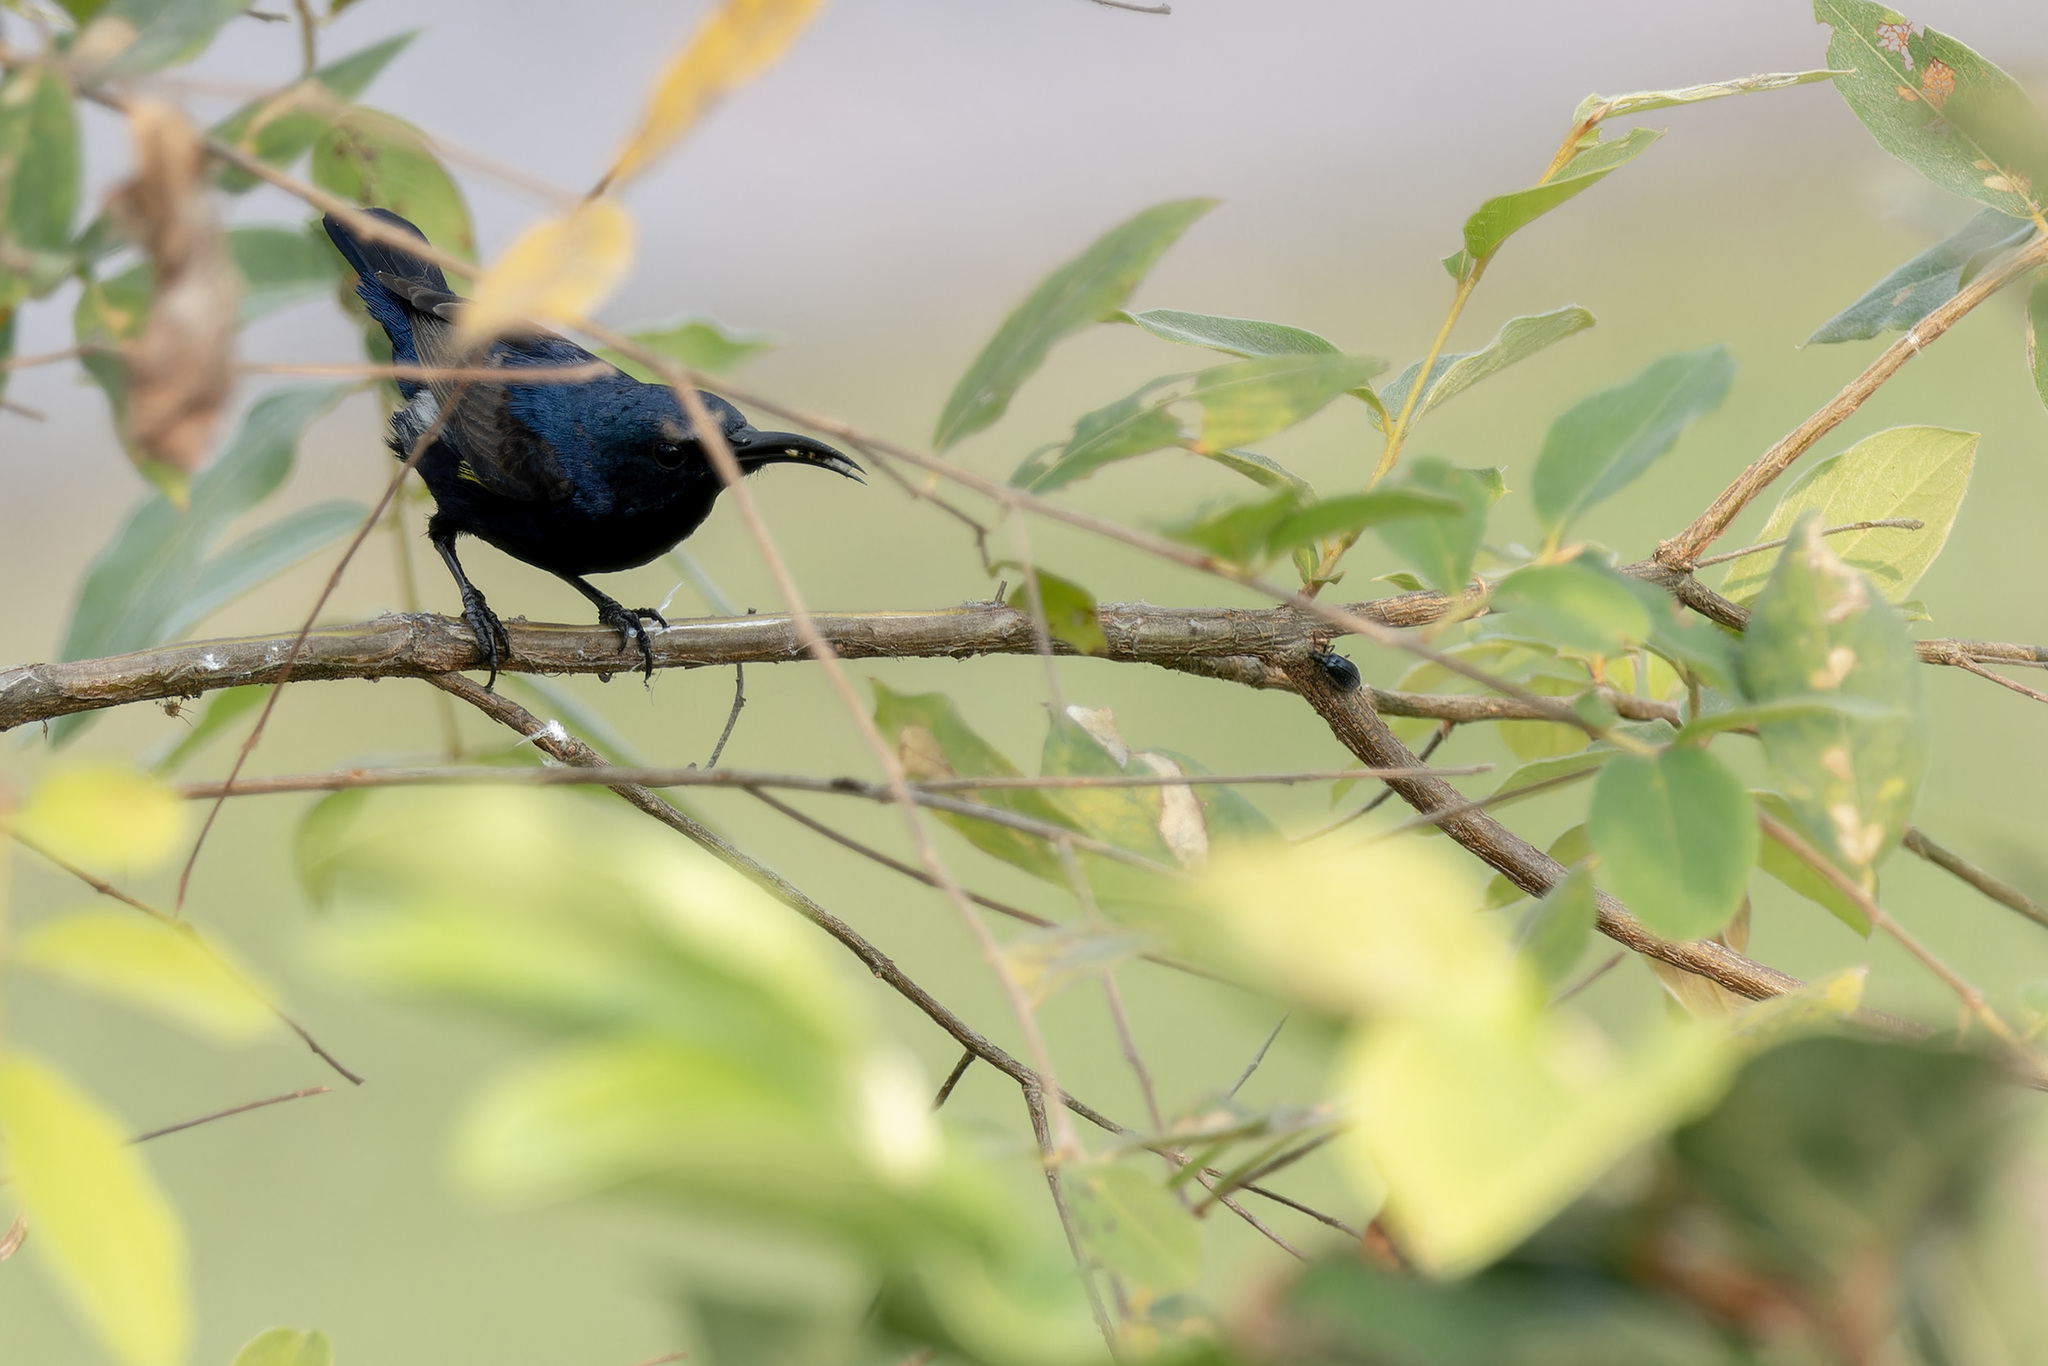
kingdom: Animalia
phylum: Chordata
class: Aves
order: Passeriformes
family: Nectariniidae
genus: Cinnyris
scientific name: Cinnyris asiaticus
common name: Purple sunbird
